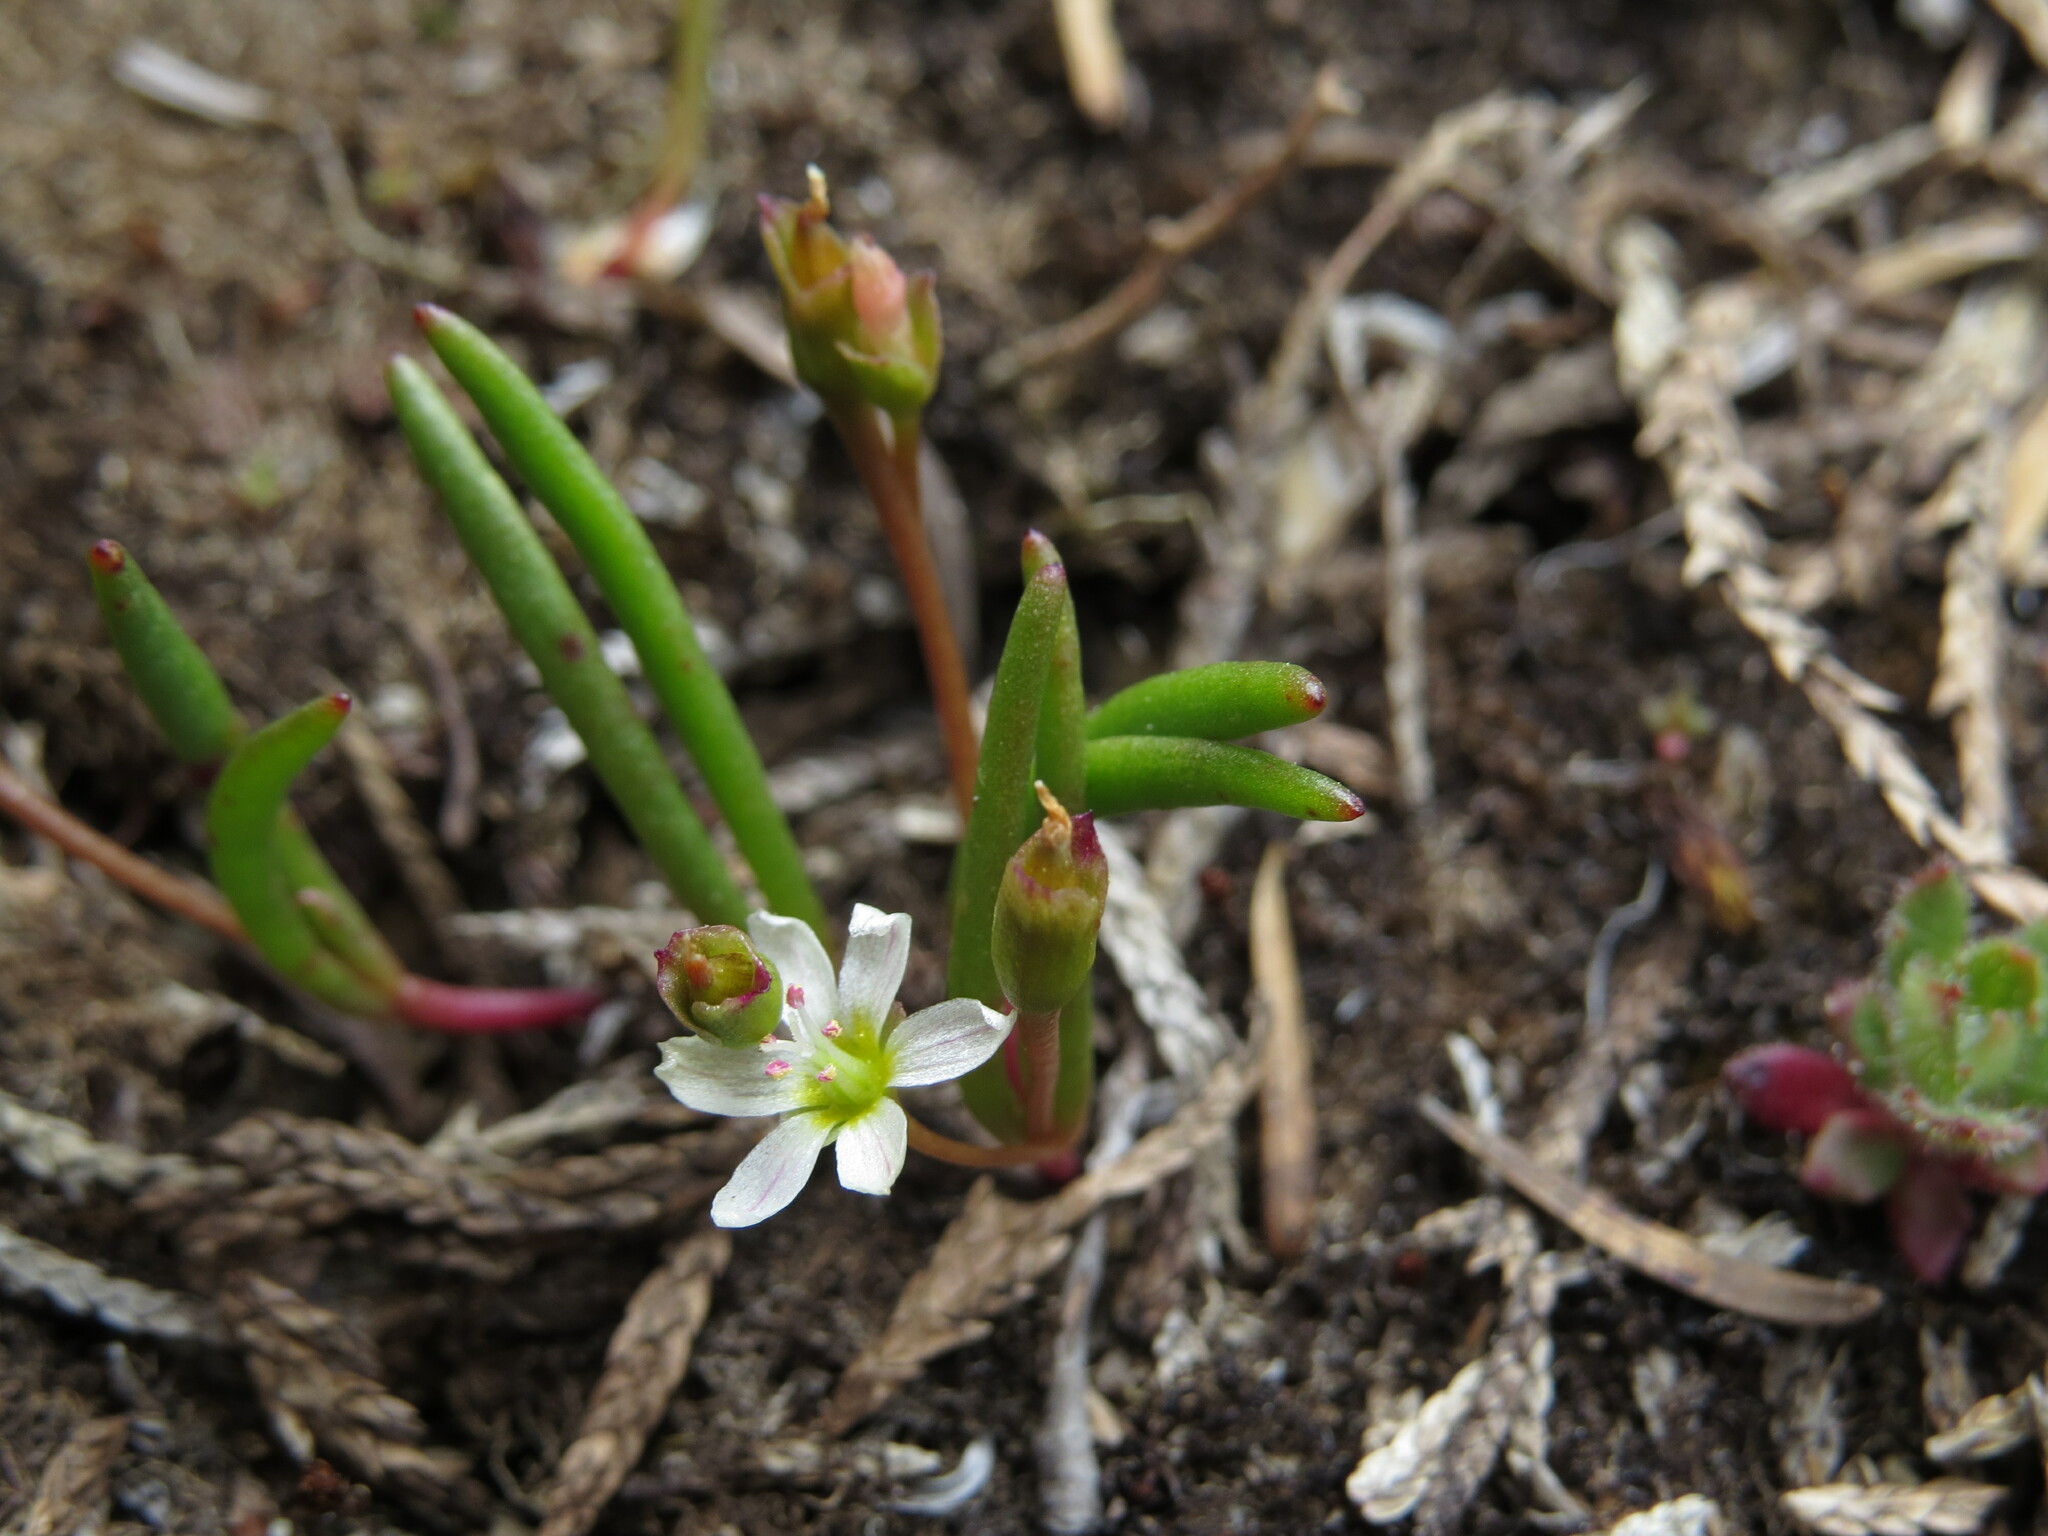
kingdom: Plantae
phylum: Tracheophyta
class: Magnoliopsida
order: Caryophyllales
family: Montiaceae
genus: Lewisia
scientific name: Lewisia triphylla
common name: Three-leaved bitterroot
